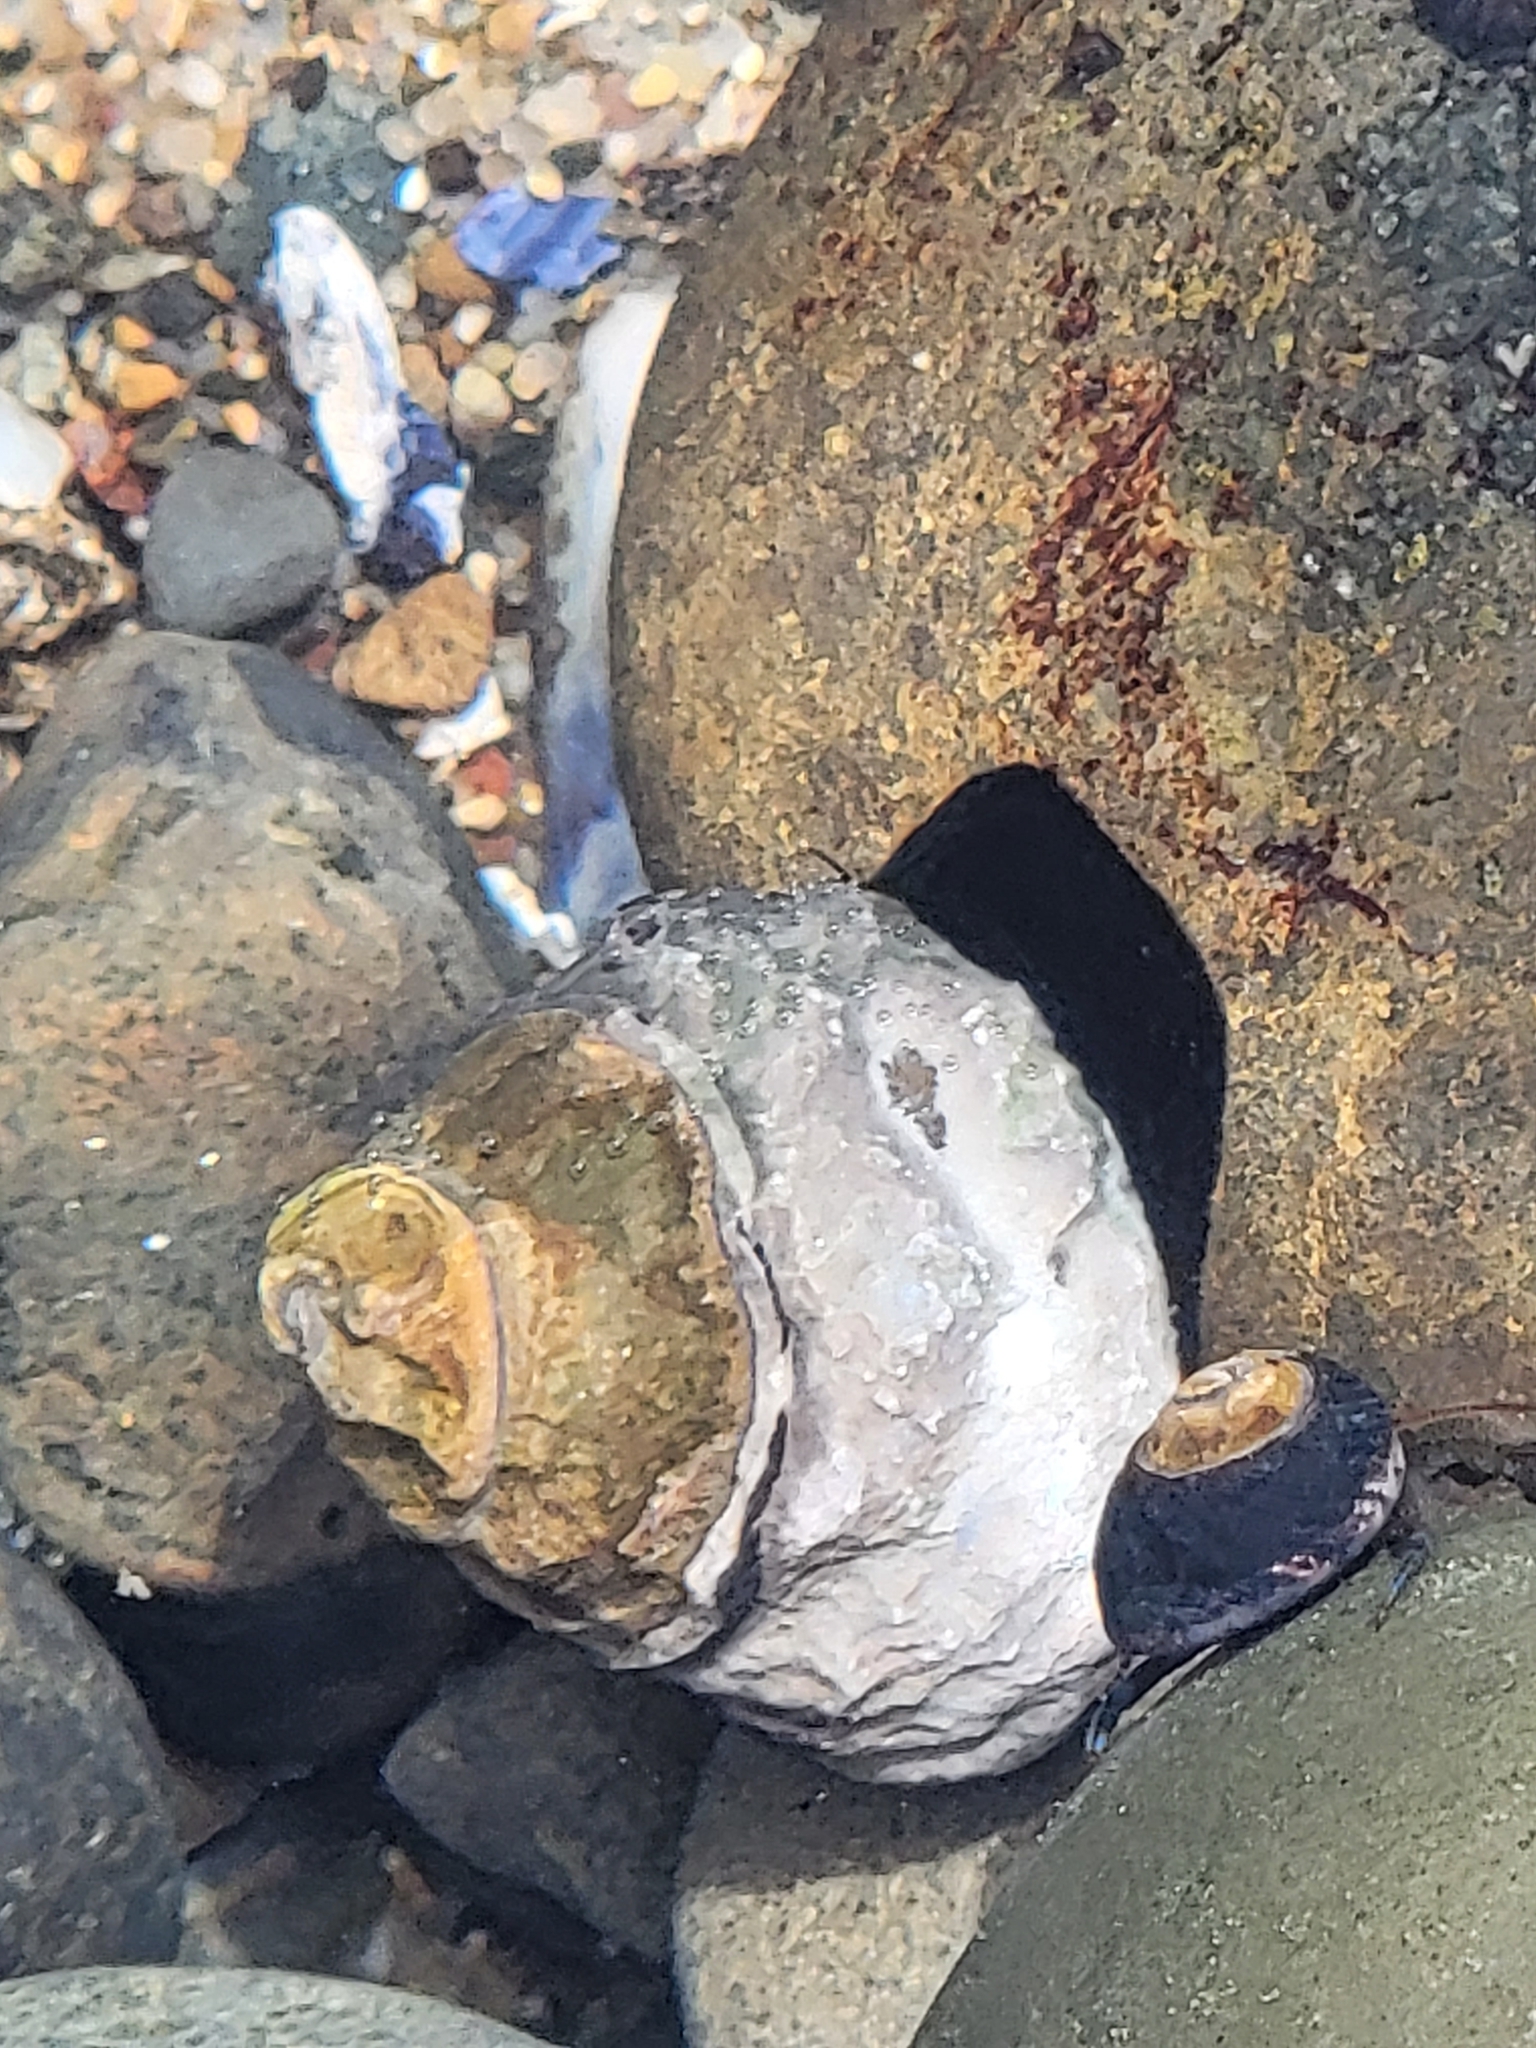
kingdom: Animalia
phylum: Mollusca
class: Gastropoda
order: Trochida
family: Tegulidae
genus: Tegula
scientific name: Tegula funebralis
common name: Black tegula
